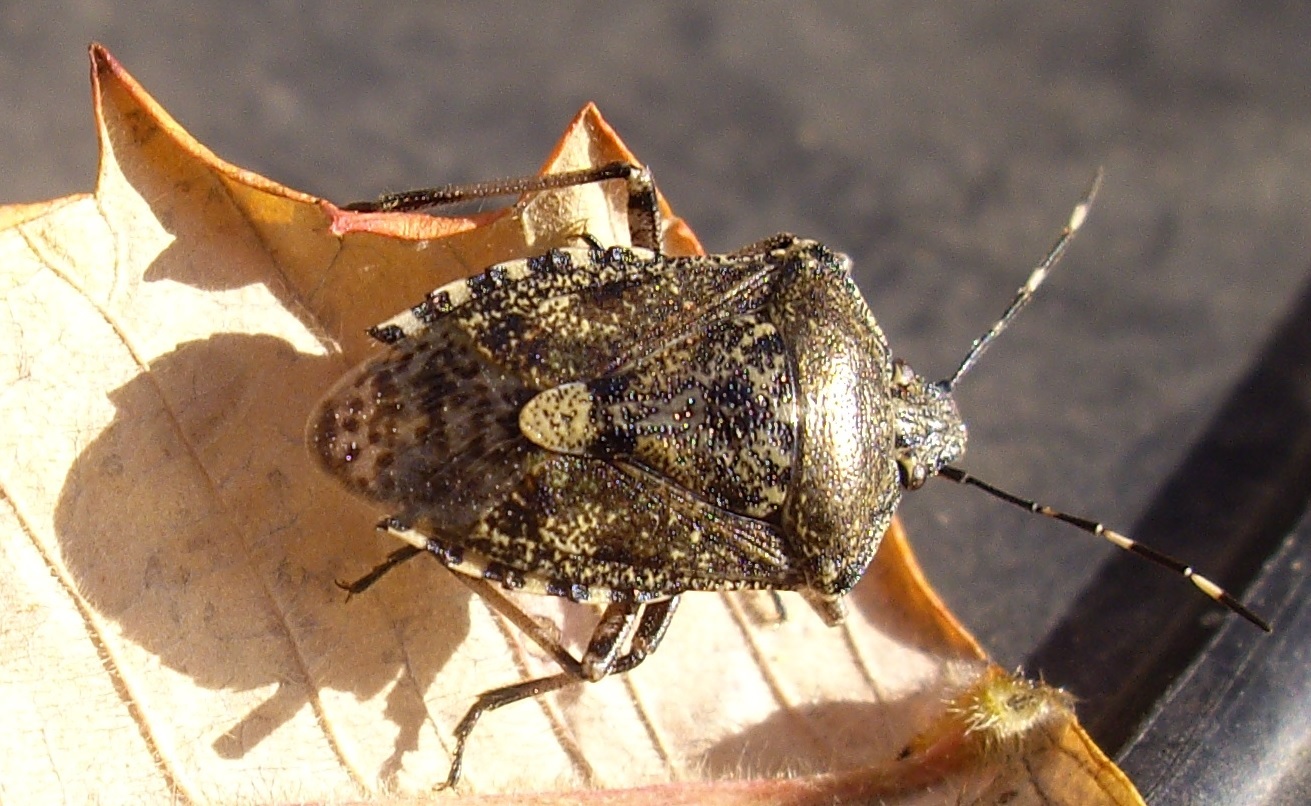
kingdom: Animalia
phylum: Arthropoda
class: Insecta
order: Hemiptera
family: Pentatomidae
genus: Rhaphigaster
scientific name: Rhaphigaster nebulosa
